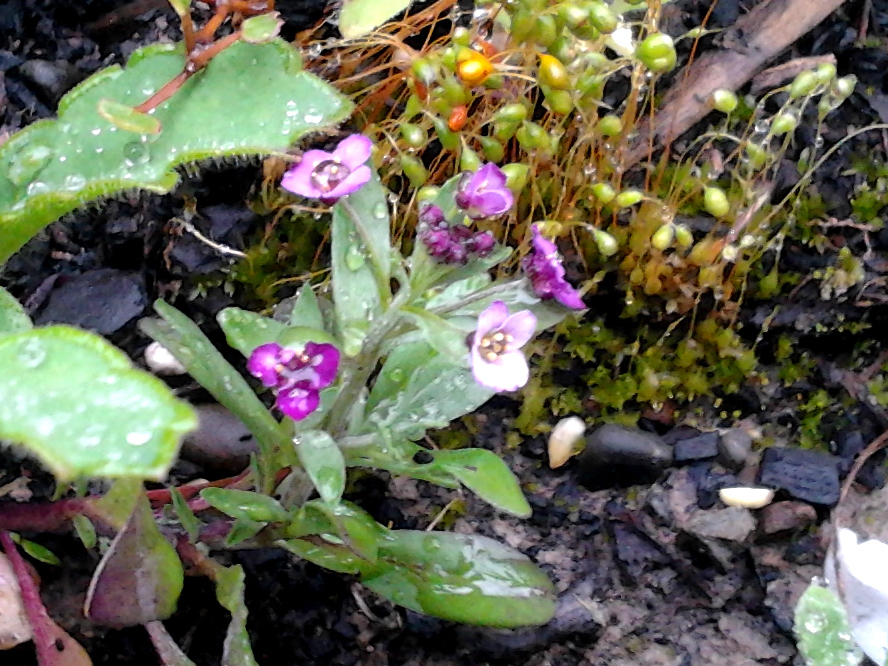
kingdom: Plantae
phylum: Tracheophyta
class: Magnoliopsida
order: Brassicales
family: Brassicaceae
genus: Lobularia
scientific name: Lobularia maritima
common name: Sweet alison
